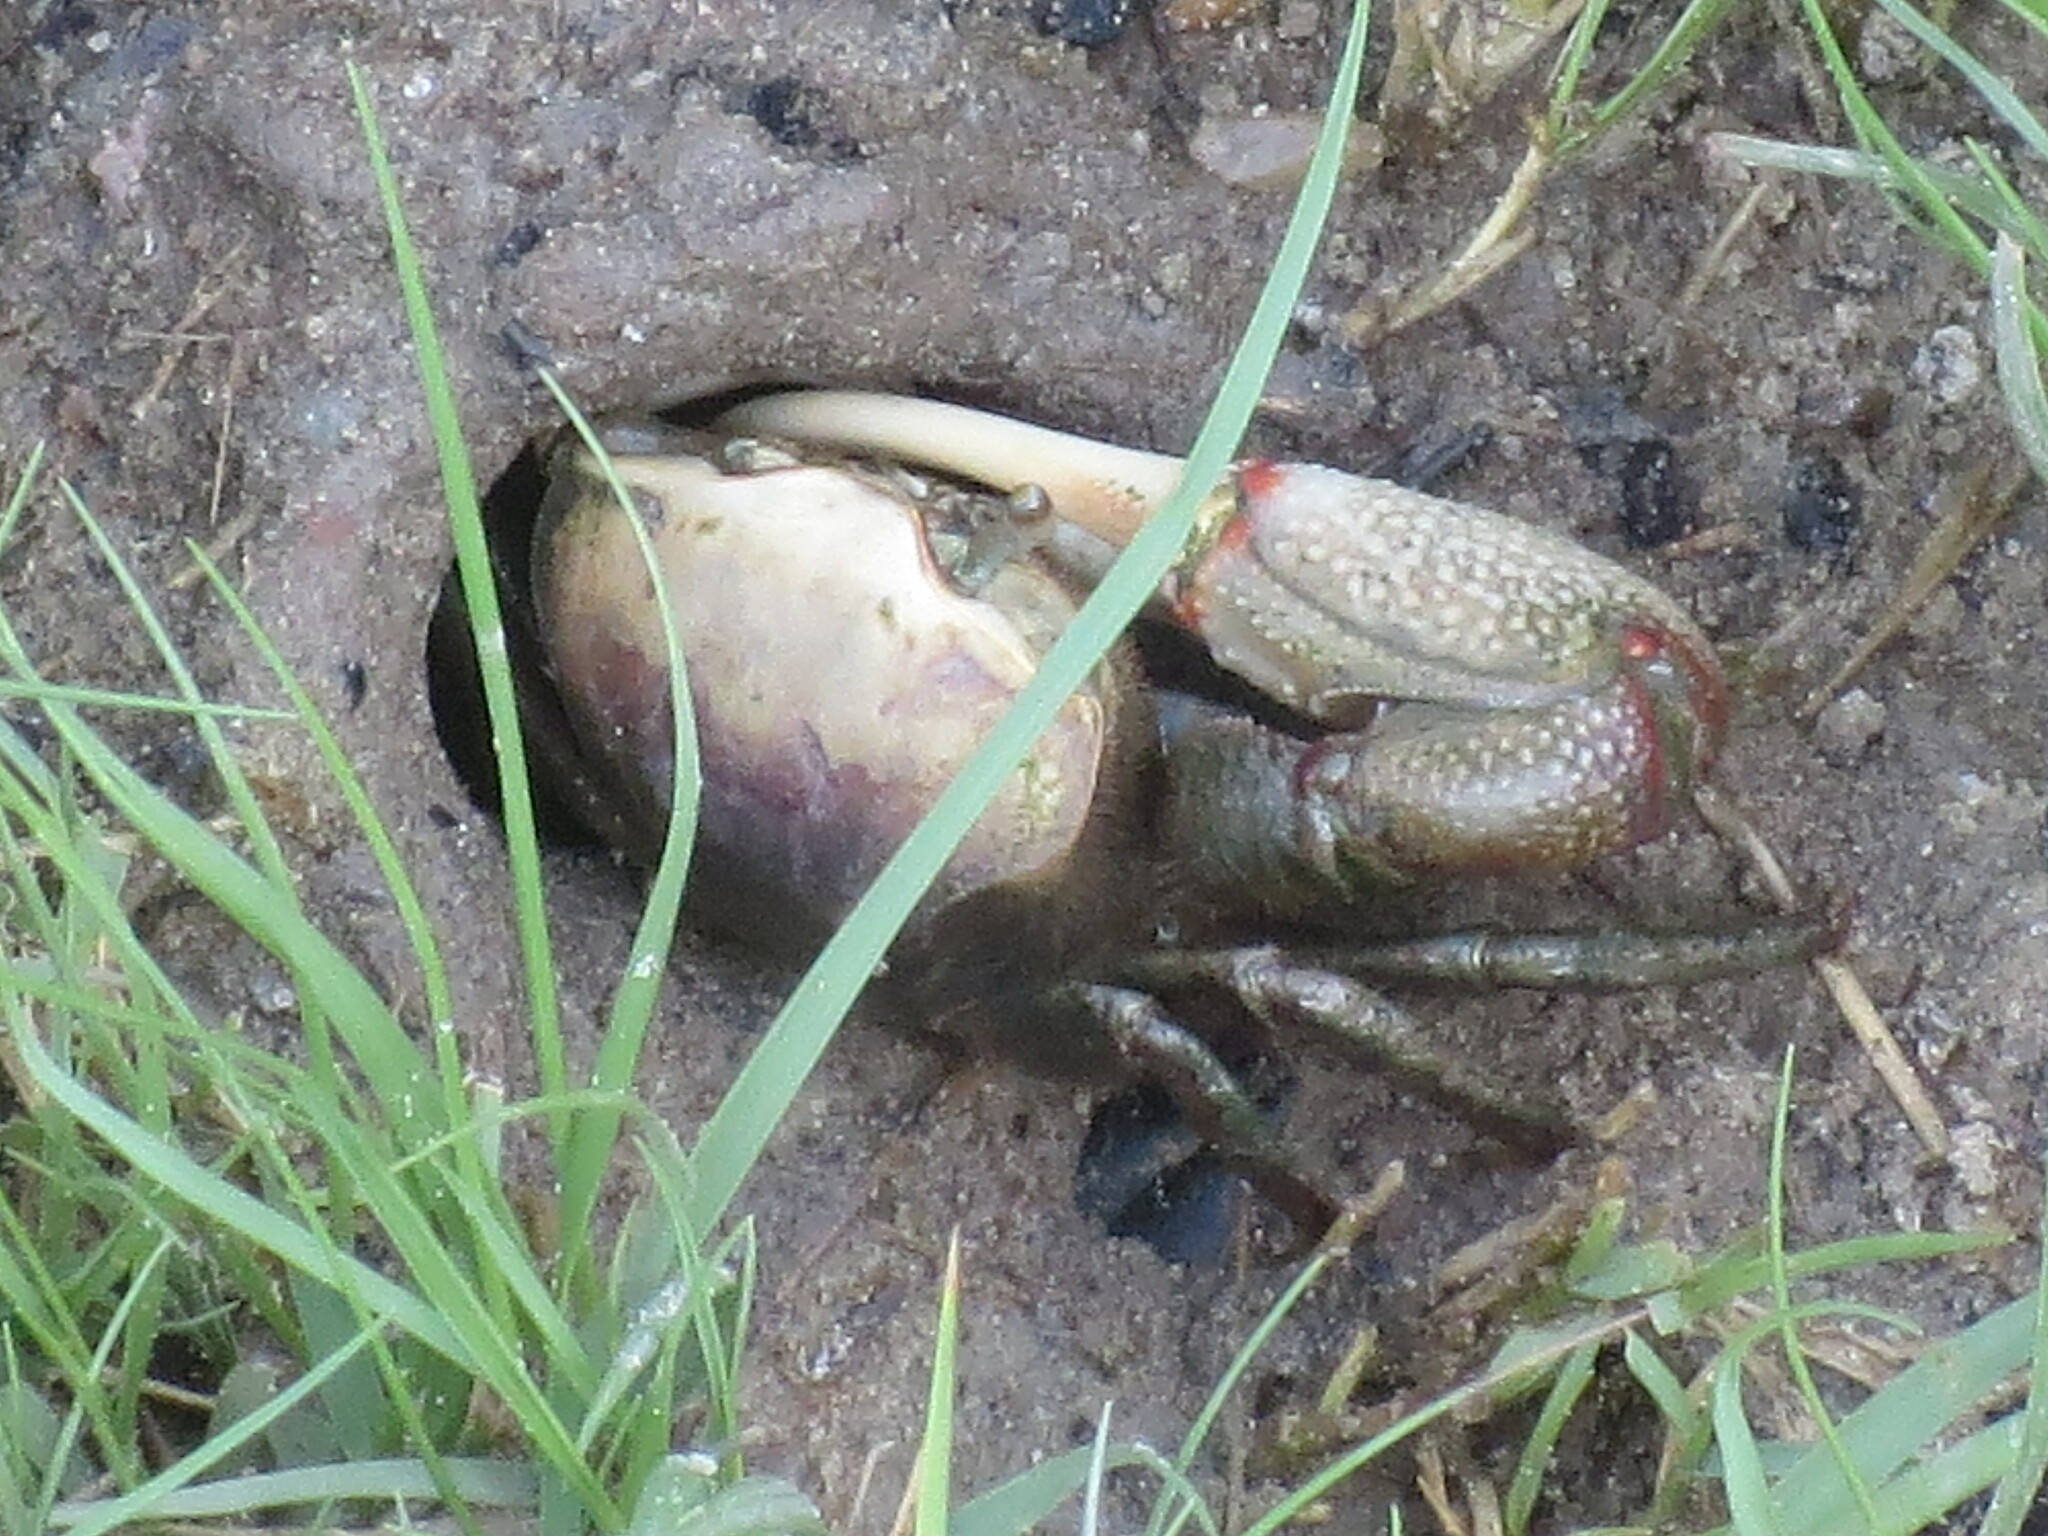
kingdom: Animalia
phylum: Arthropoda
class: Malacostraca
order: Decapoda
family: Ocypodidae
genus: Minuca
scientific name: Minuca minax
